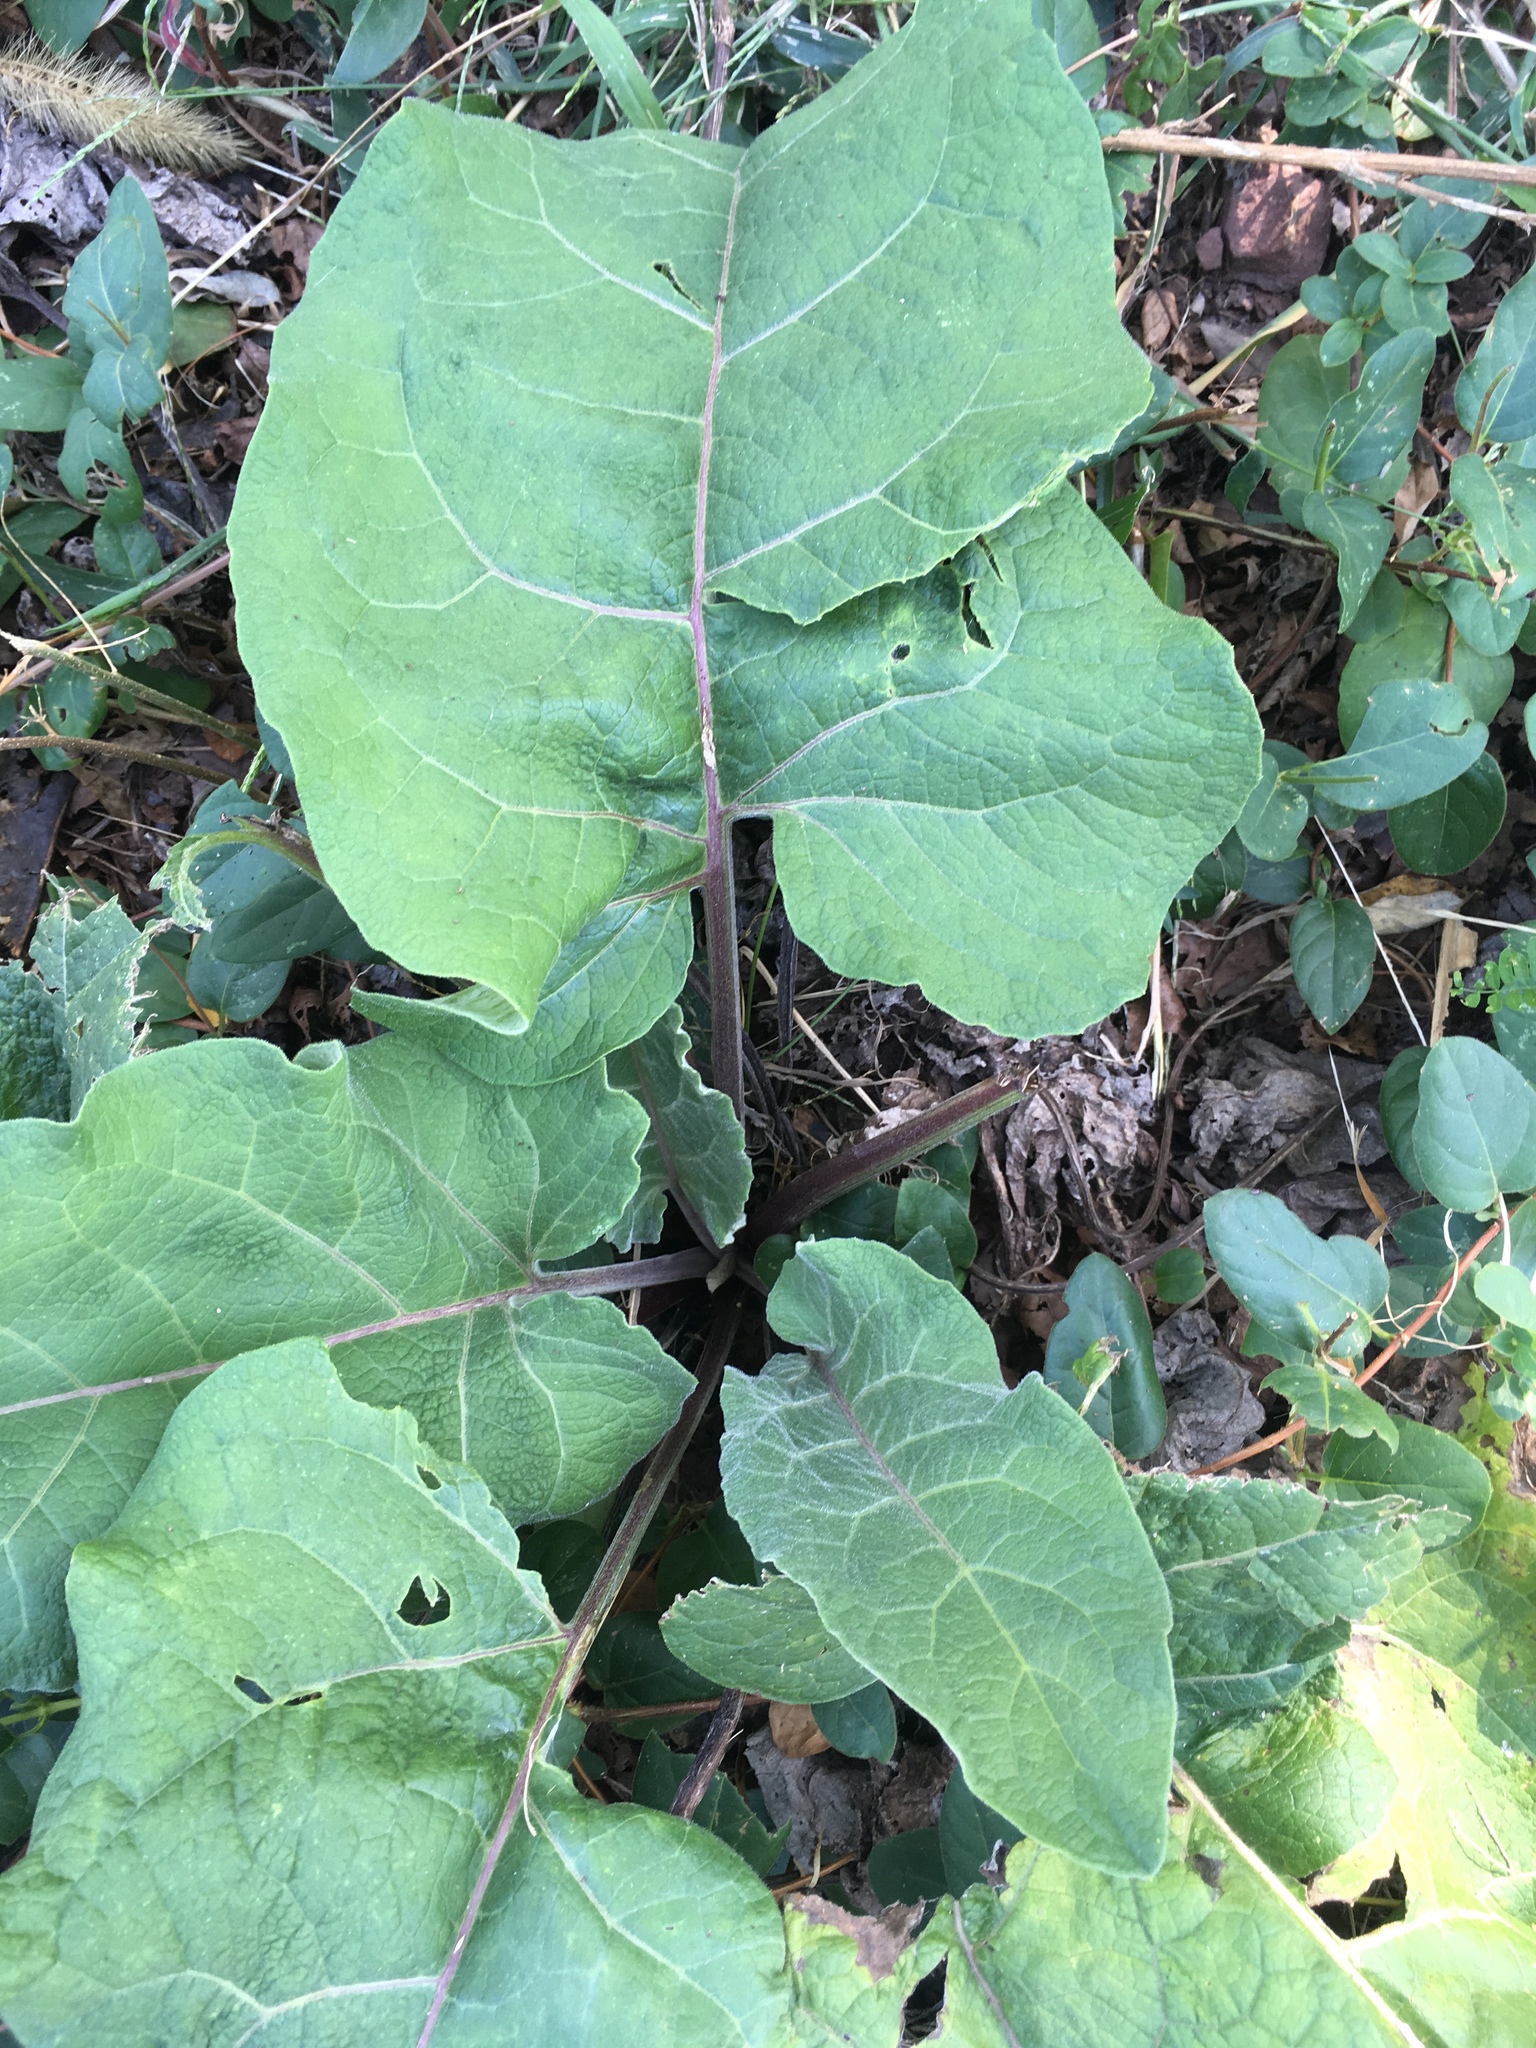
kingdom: Plantae
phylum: Tracheophyta
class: Magnoliopsida
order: Asterales
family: Asteraceae
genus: Arctium
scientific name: Arctium
